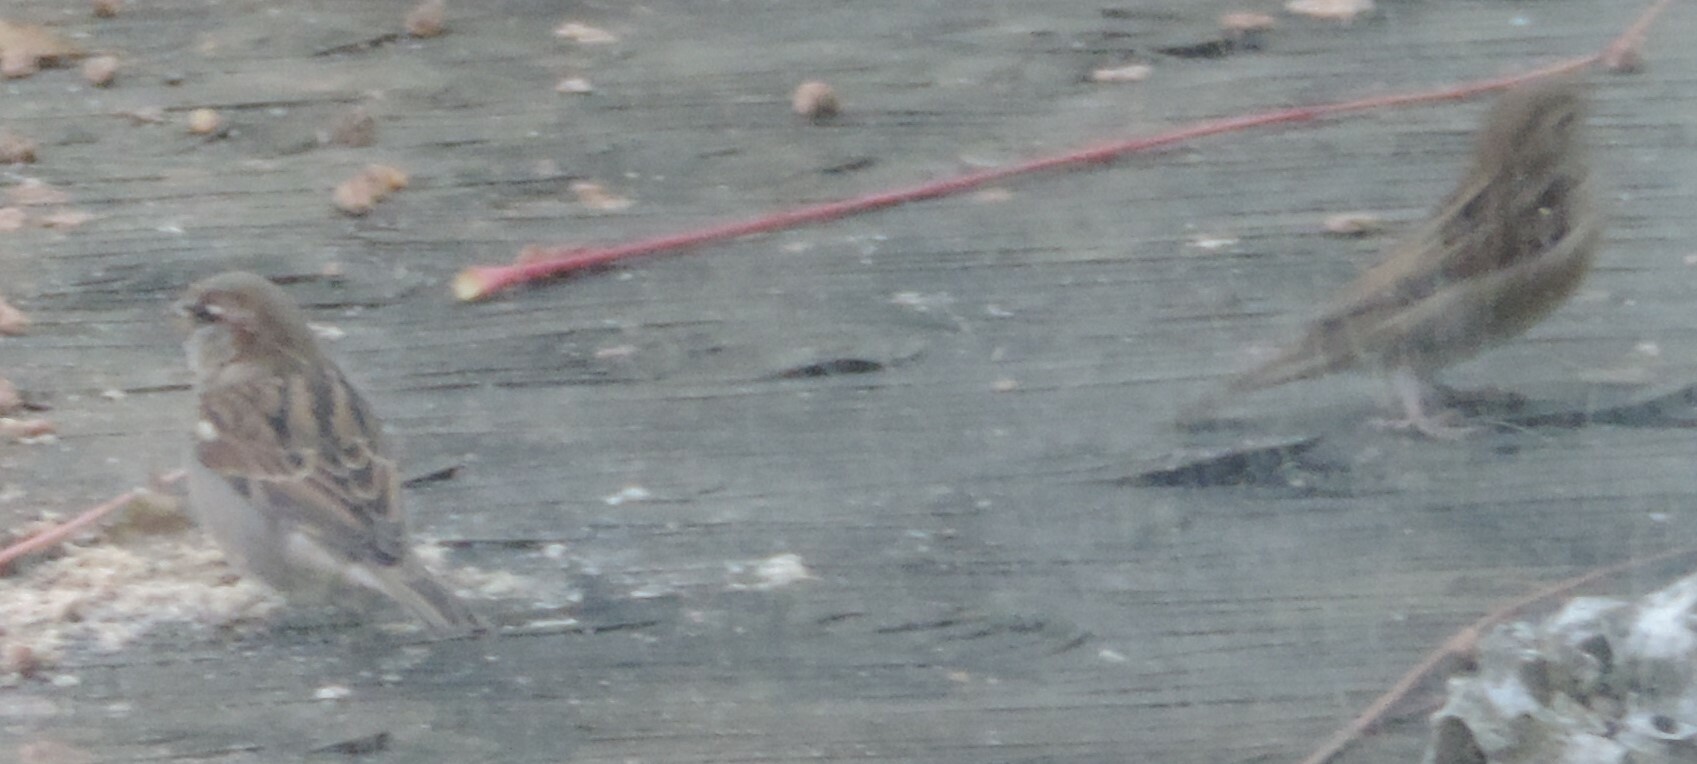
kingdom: Animalia
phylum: Chordata
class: Aves
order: Passeriformes
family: Passeridae
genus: Passer
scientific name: Passer domesticus
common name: House sparrow
